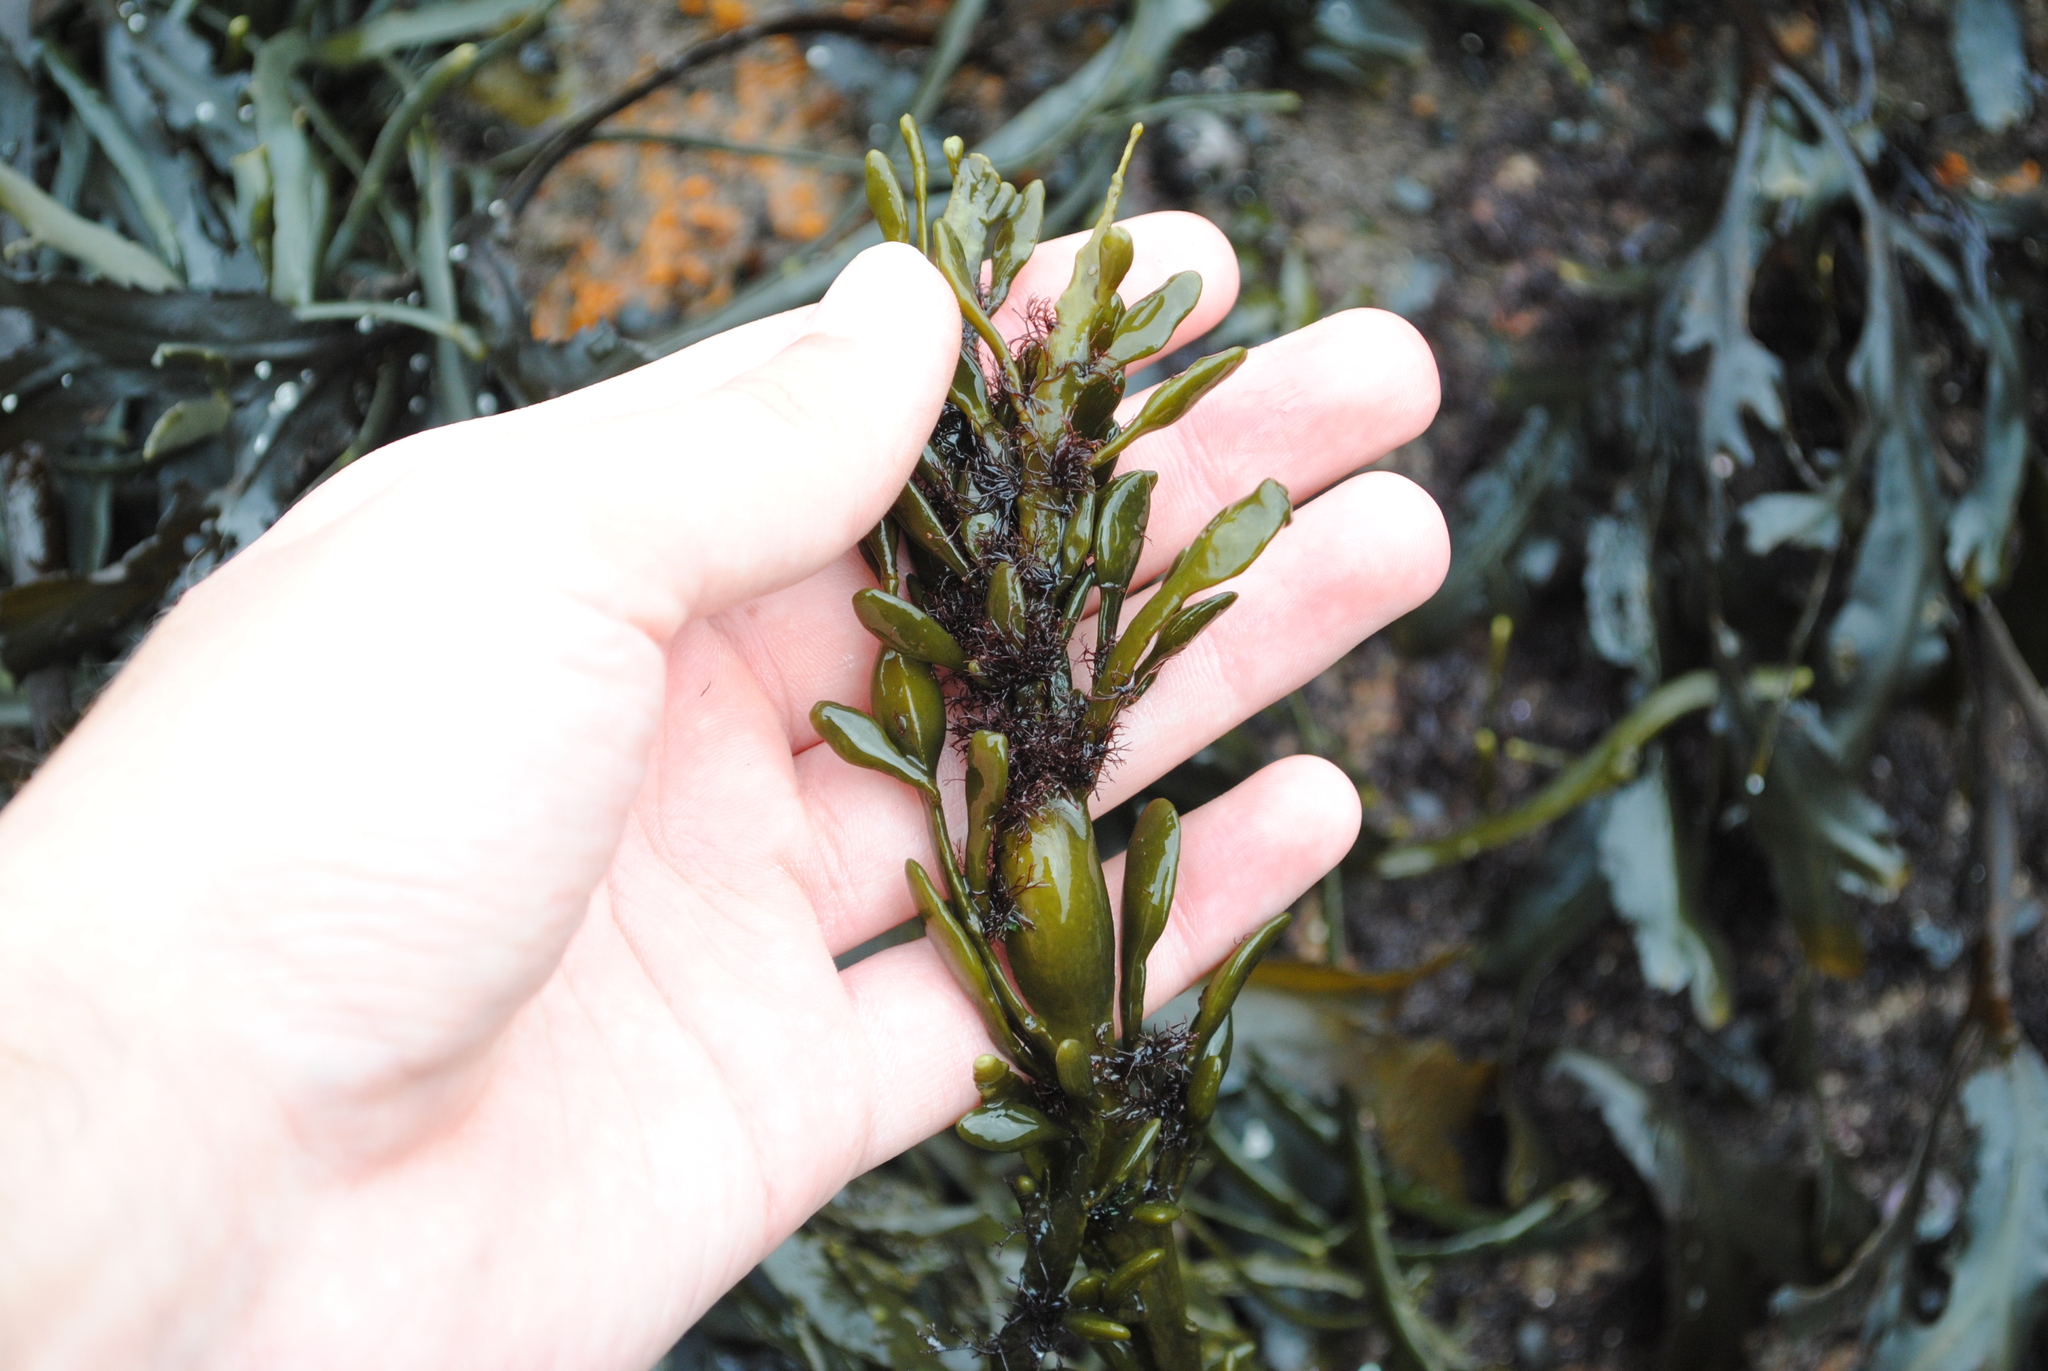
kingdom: Chromista
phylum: Ochrophyta
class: Phaeophyceae
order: Fucales
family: Fucaceae
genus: Ascophyllum
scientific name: Ascophyllum nodosum
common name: Knotted wrack
